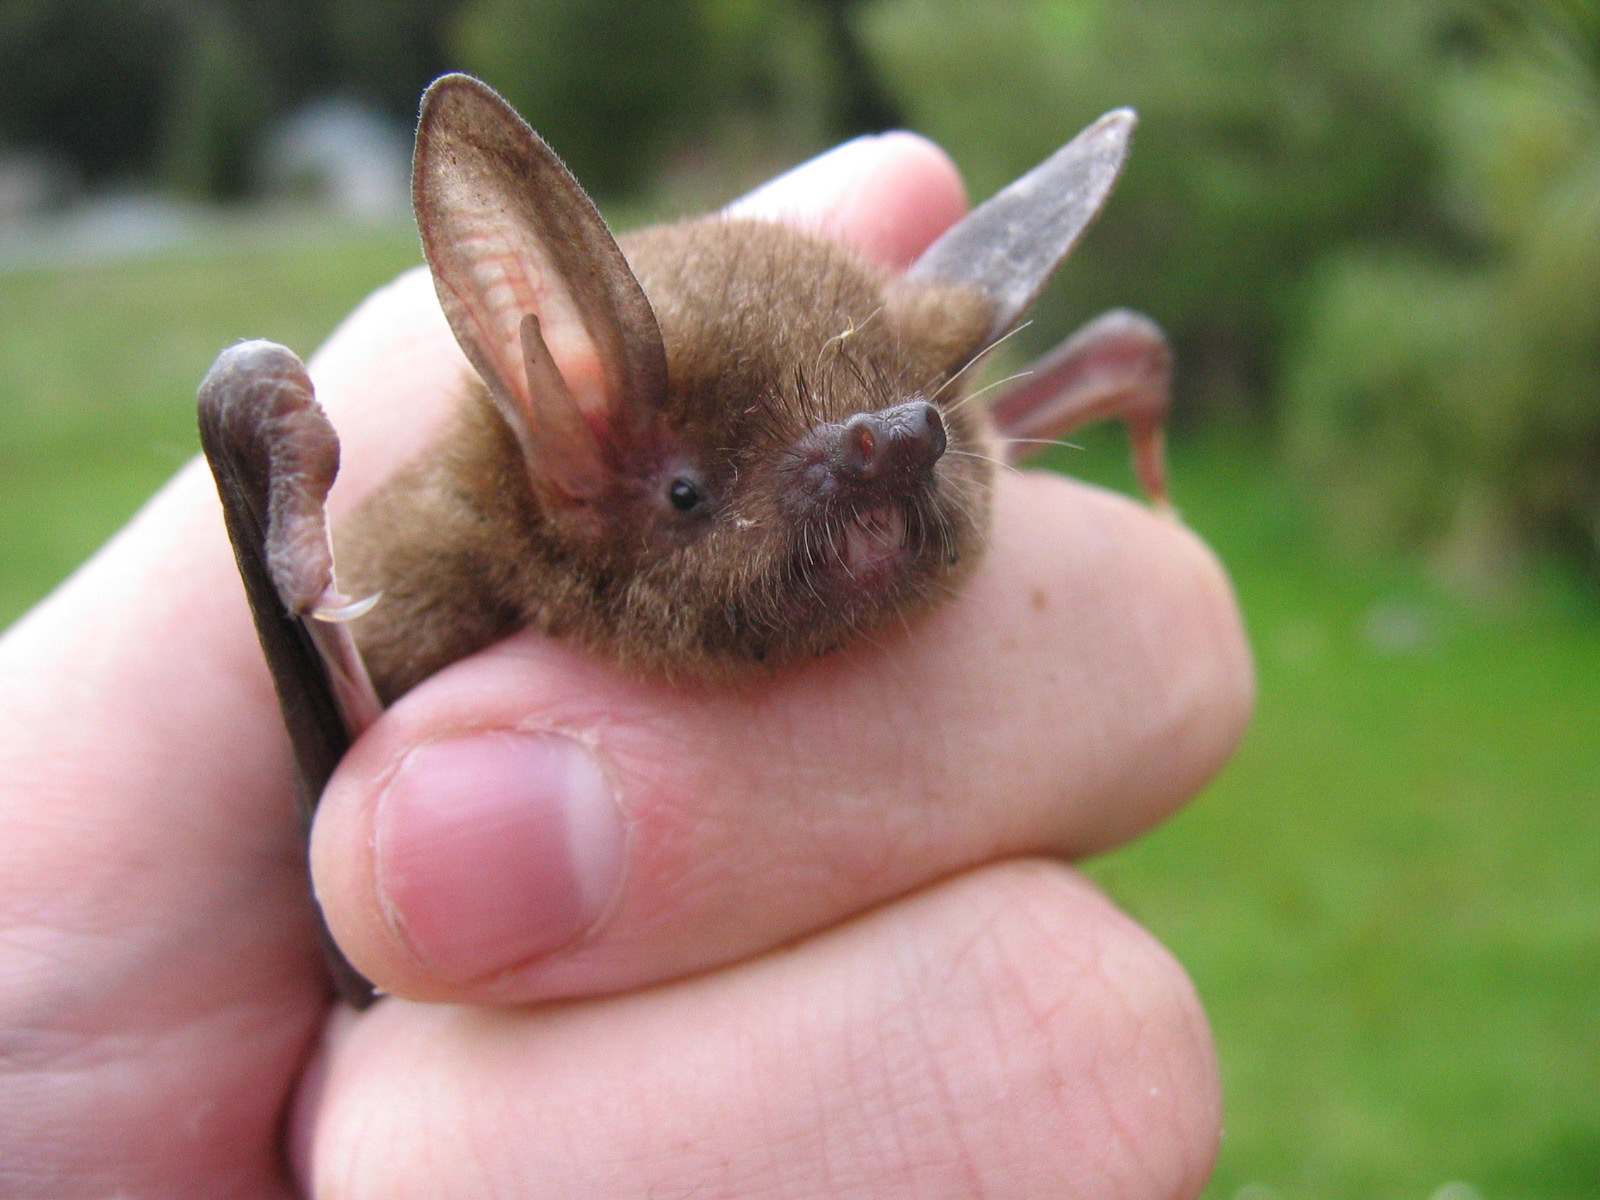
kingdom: Animalia
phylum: Chordata
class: Mammalia
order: Chiroptera
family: Mystacinidae
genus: Mystacina
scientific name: Mystacina tuberculata
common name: New zealand lesser short-tailed bat
